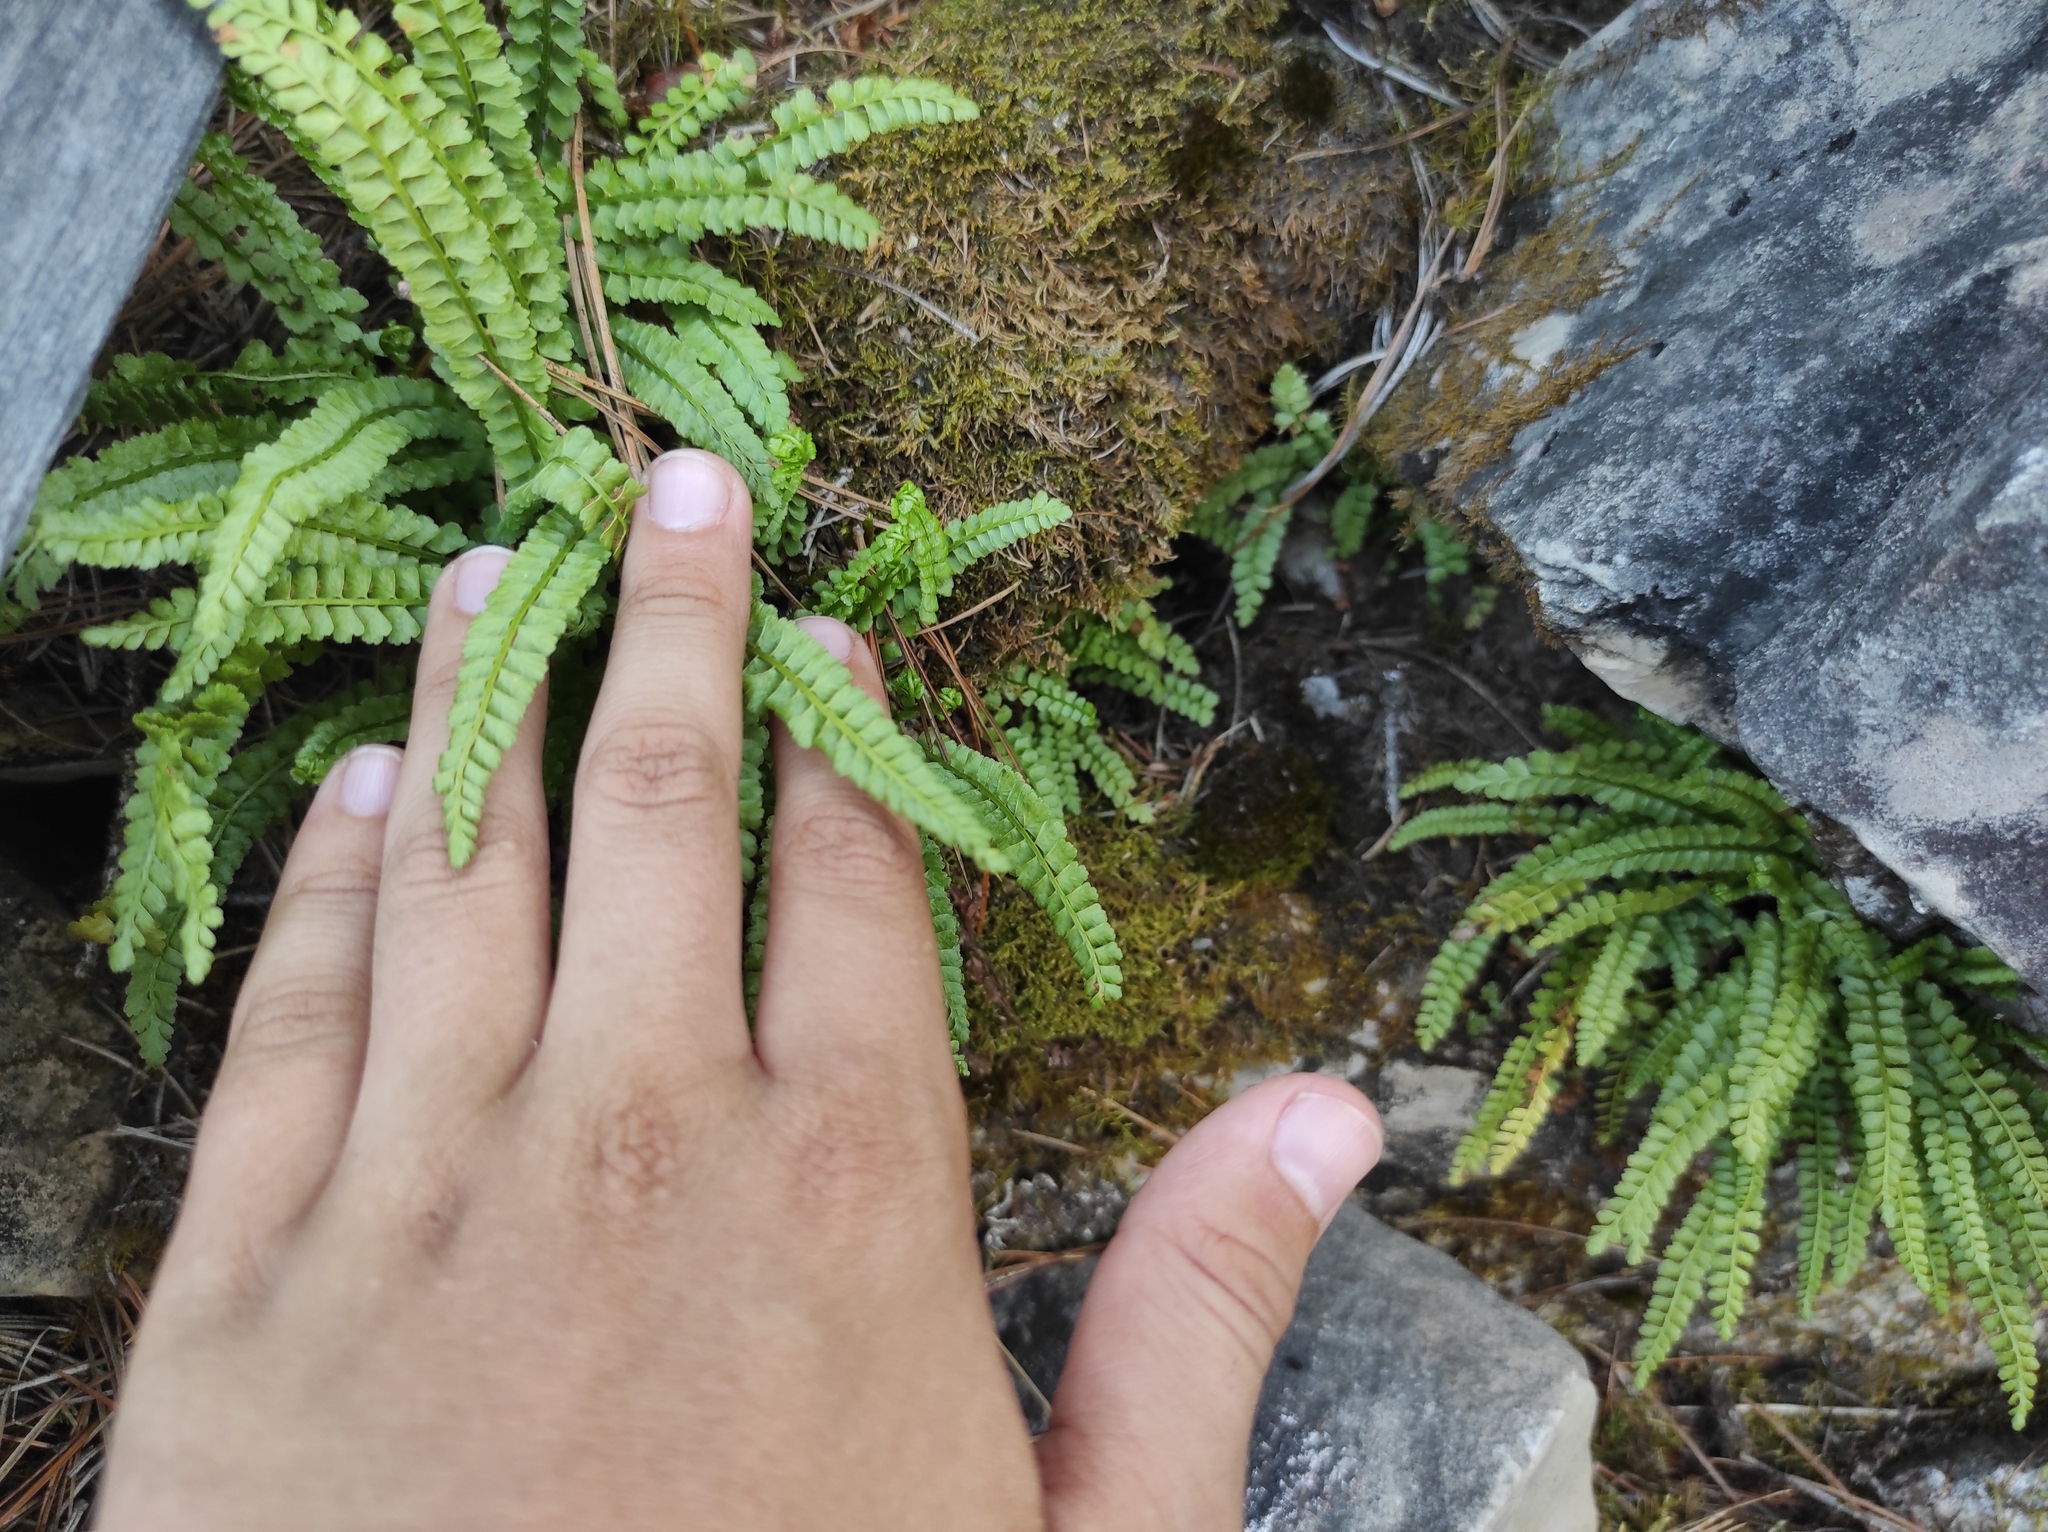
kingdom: Plantae
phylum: Tracheophyta
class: Polypodiopsida
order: Polypodiales
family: Aspleniaceae
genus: Asplenium
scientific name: Asplenium viride
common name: Green spleenwort
